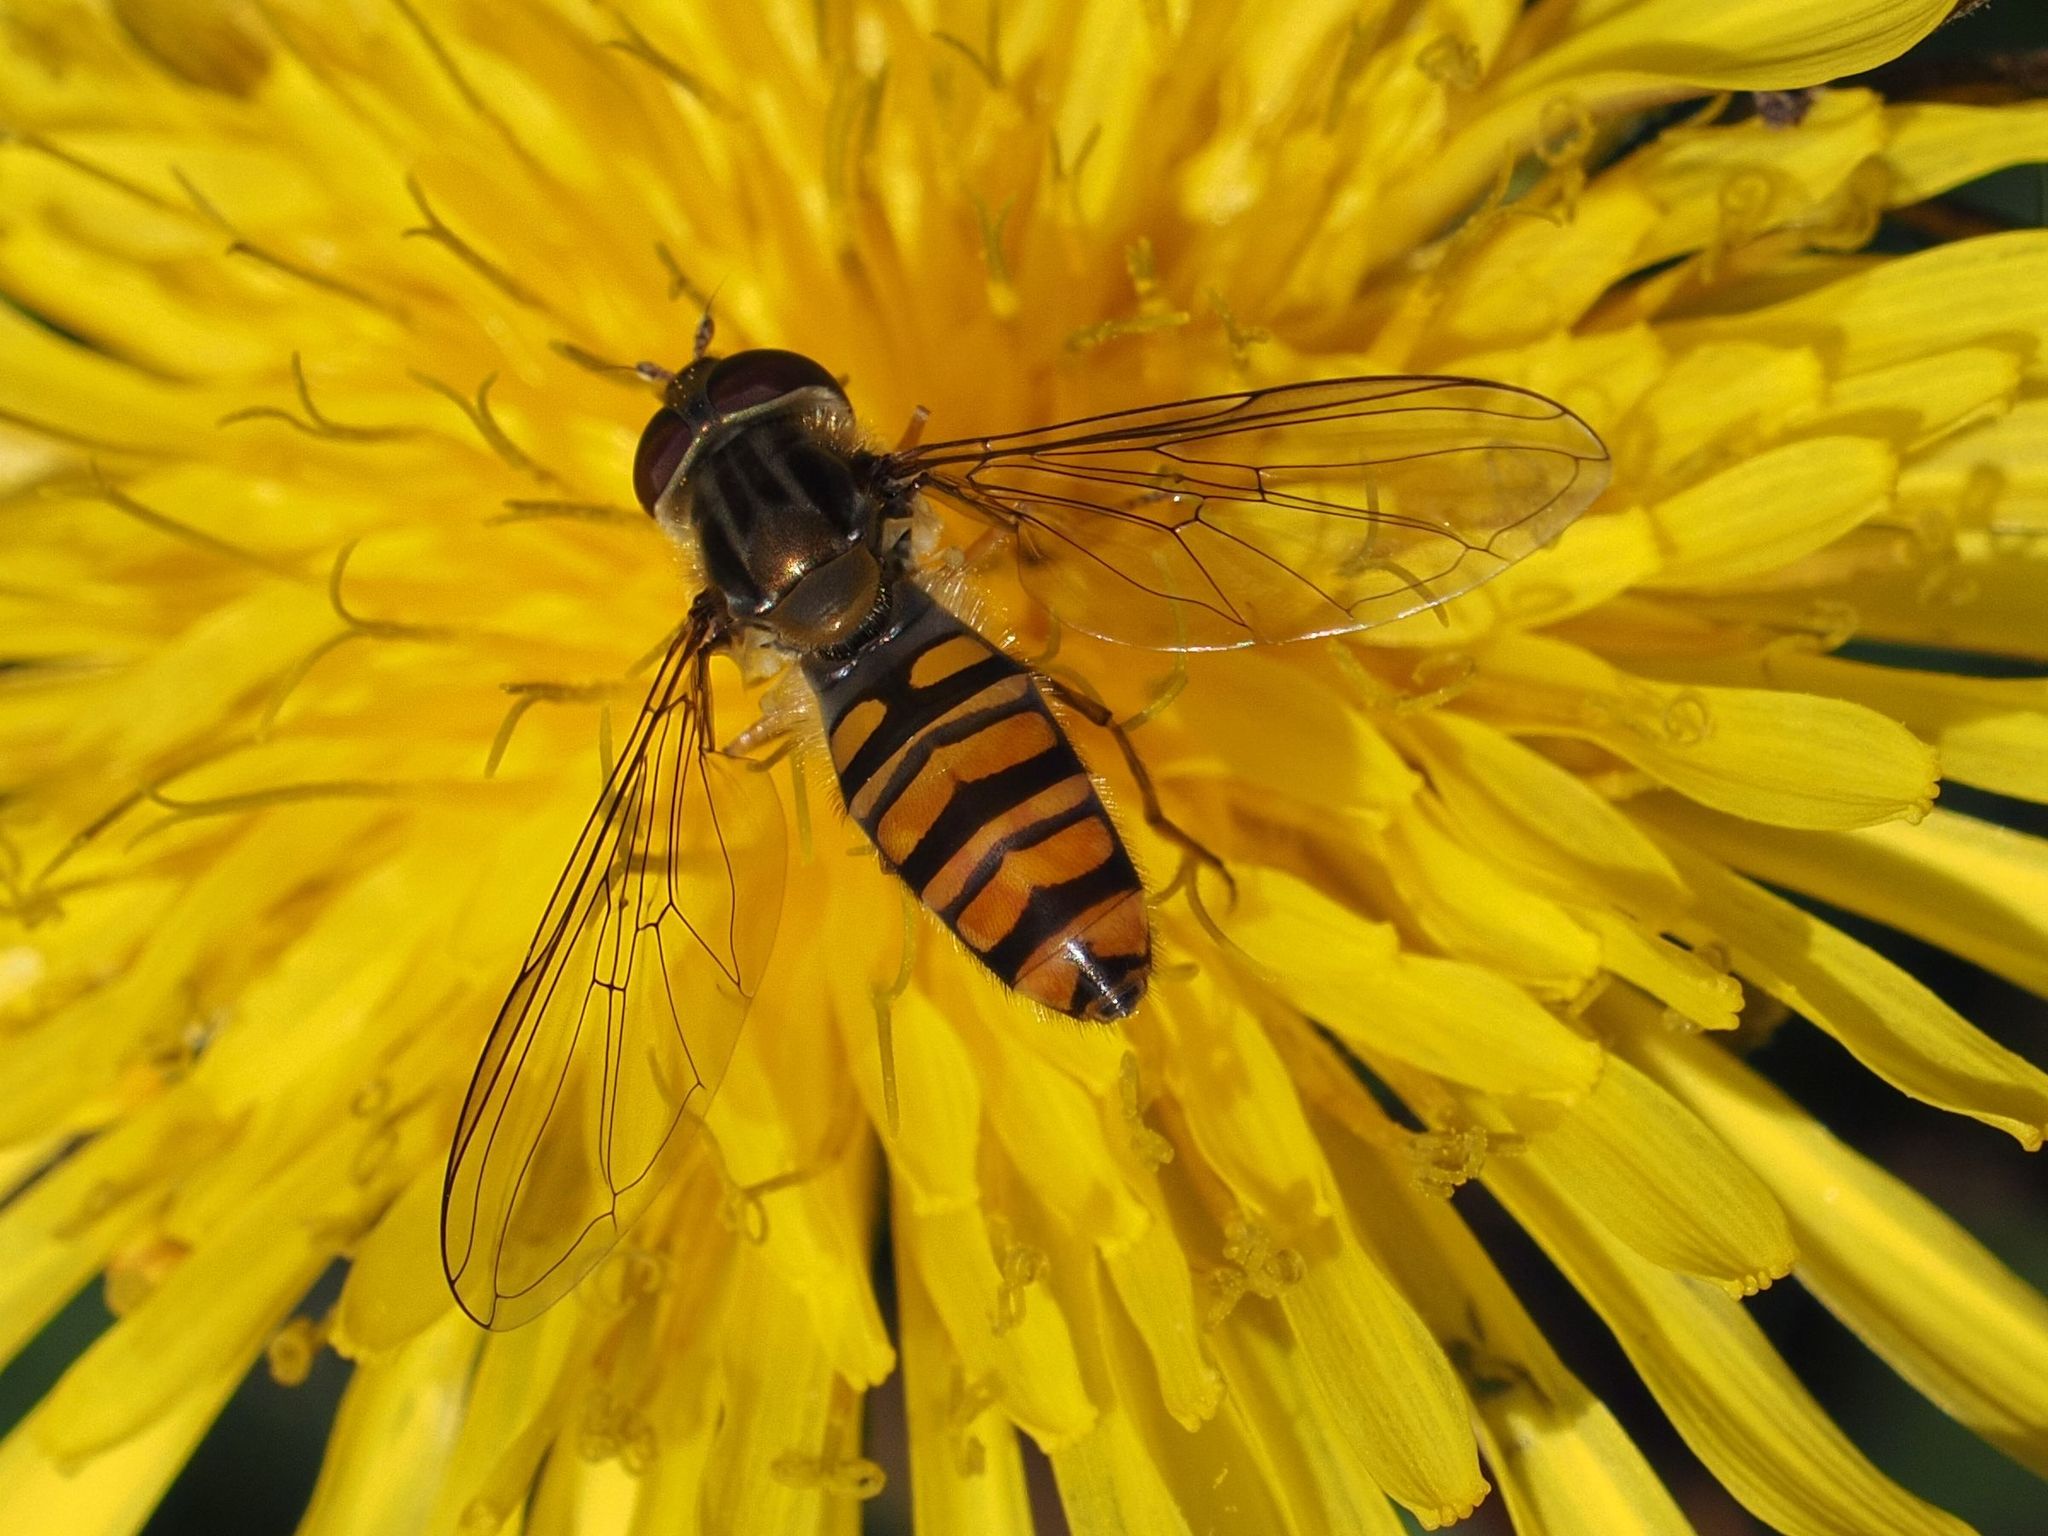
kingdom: Animalia
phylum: Arthropoda
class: Insecta
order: Diptera
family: Syrphidae
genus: Episyrphus
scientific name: Episyrphus balteatus
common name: Marmalade hoverfly
